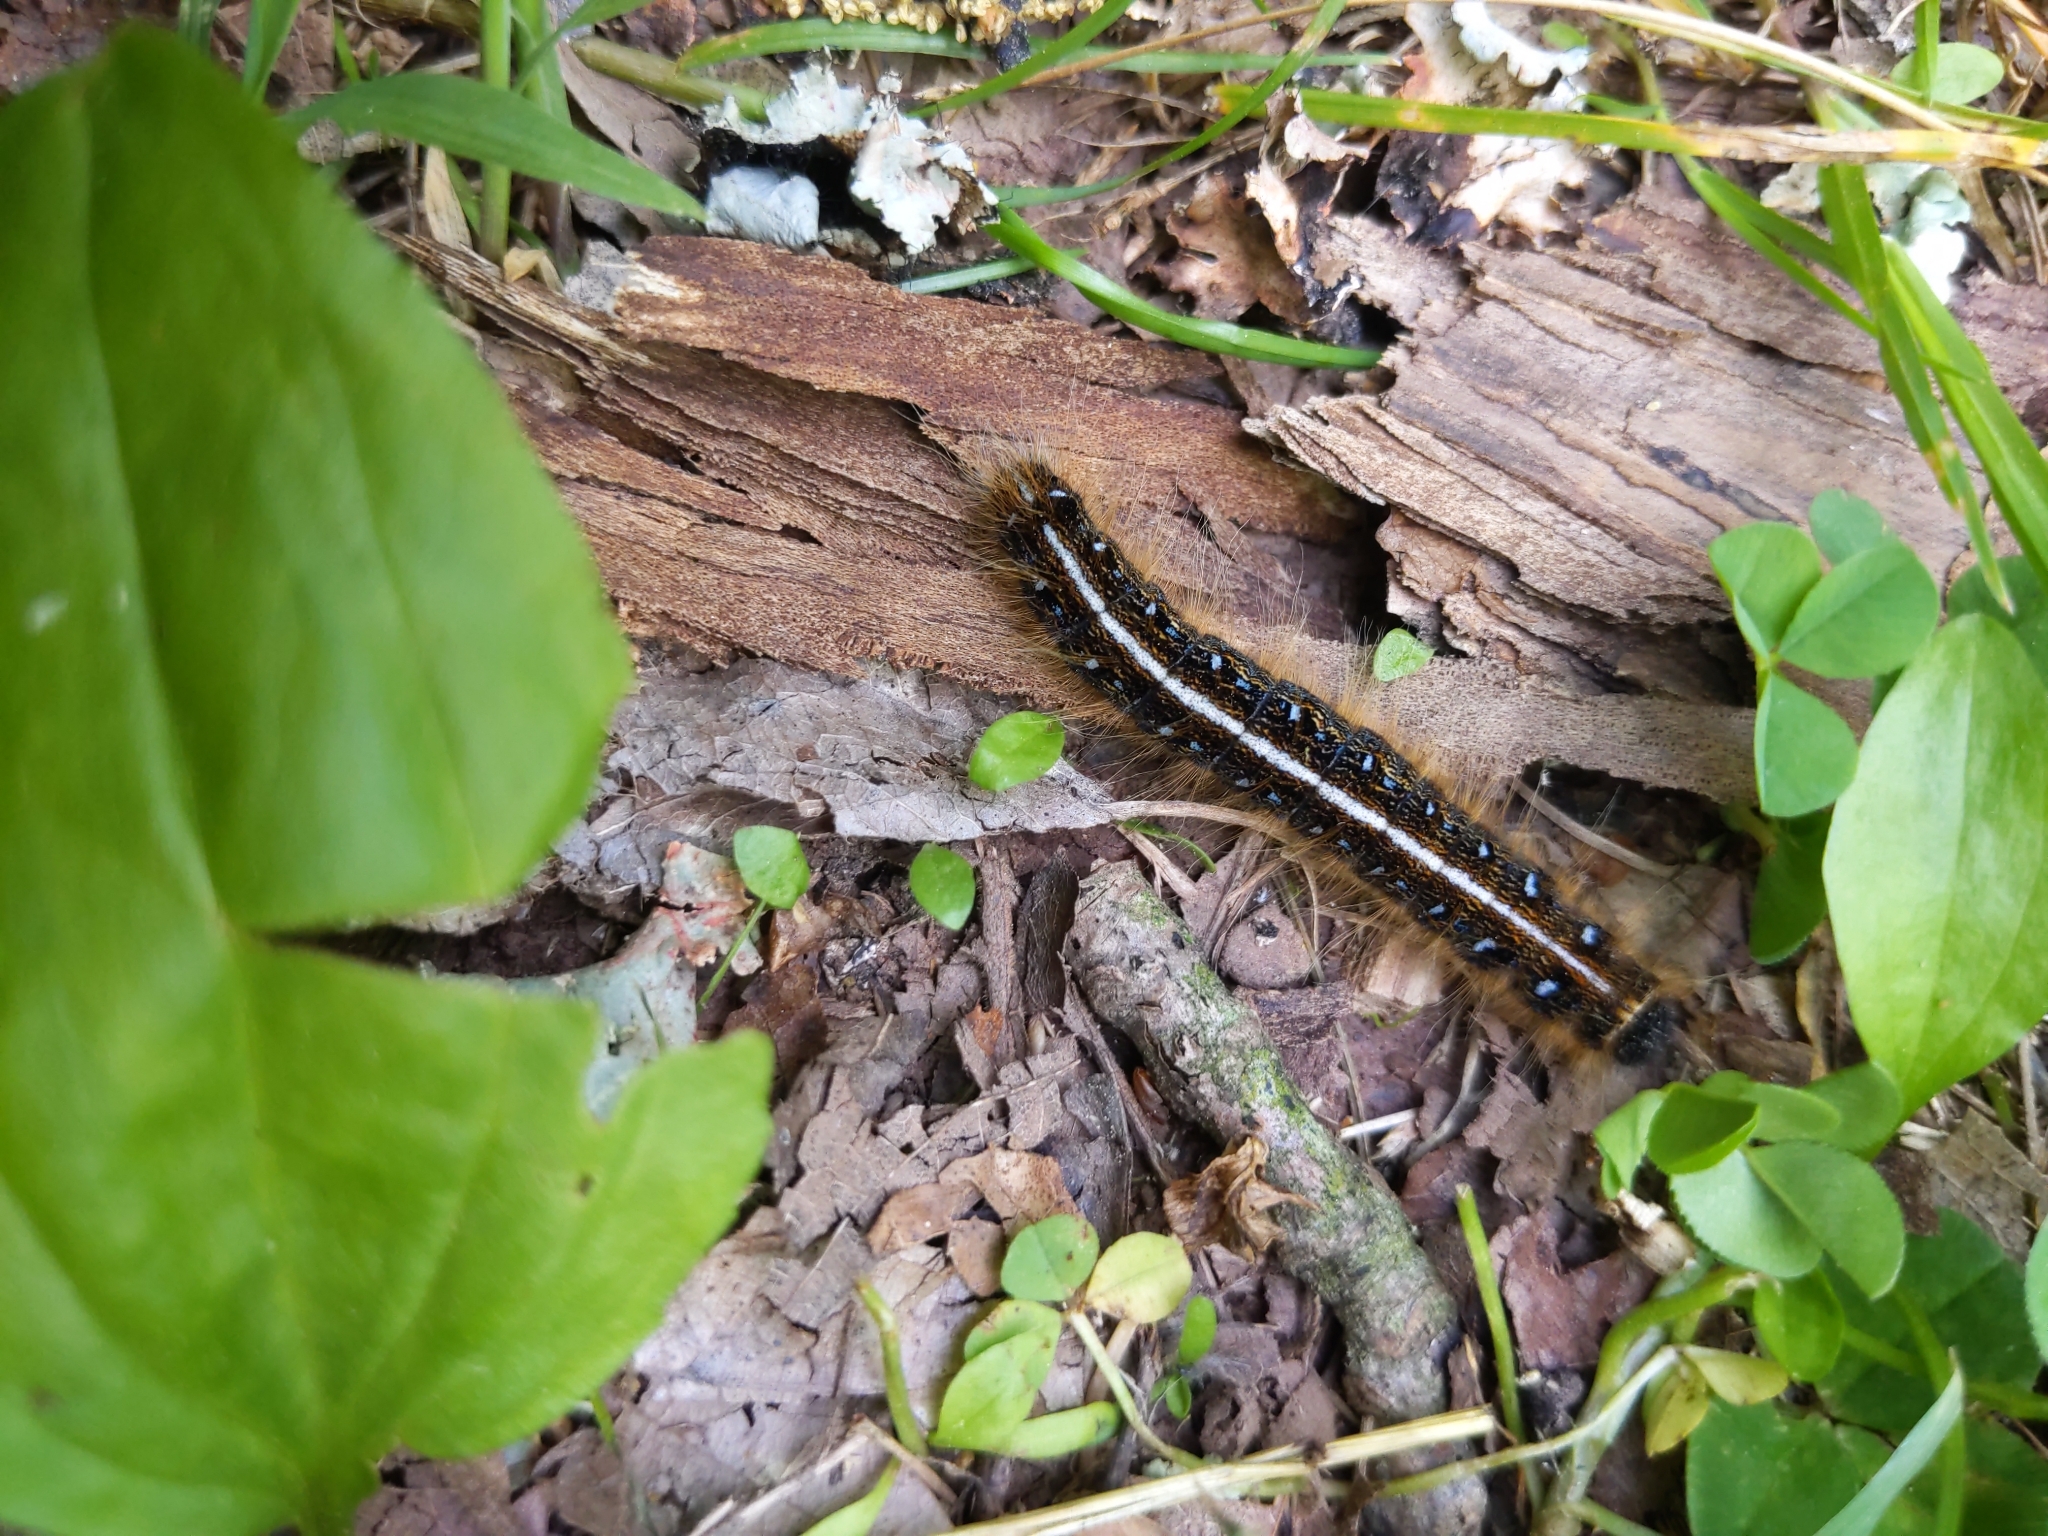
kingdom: Animalia
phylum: Arthropoda
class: Insecta
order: Lepidoptera
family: Lasiocampidae
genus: Malacosoma
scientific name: Malacosoma americana
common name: Eastern tent caterpillar moth
